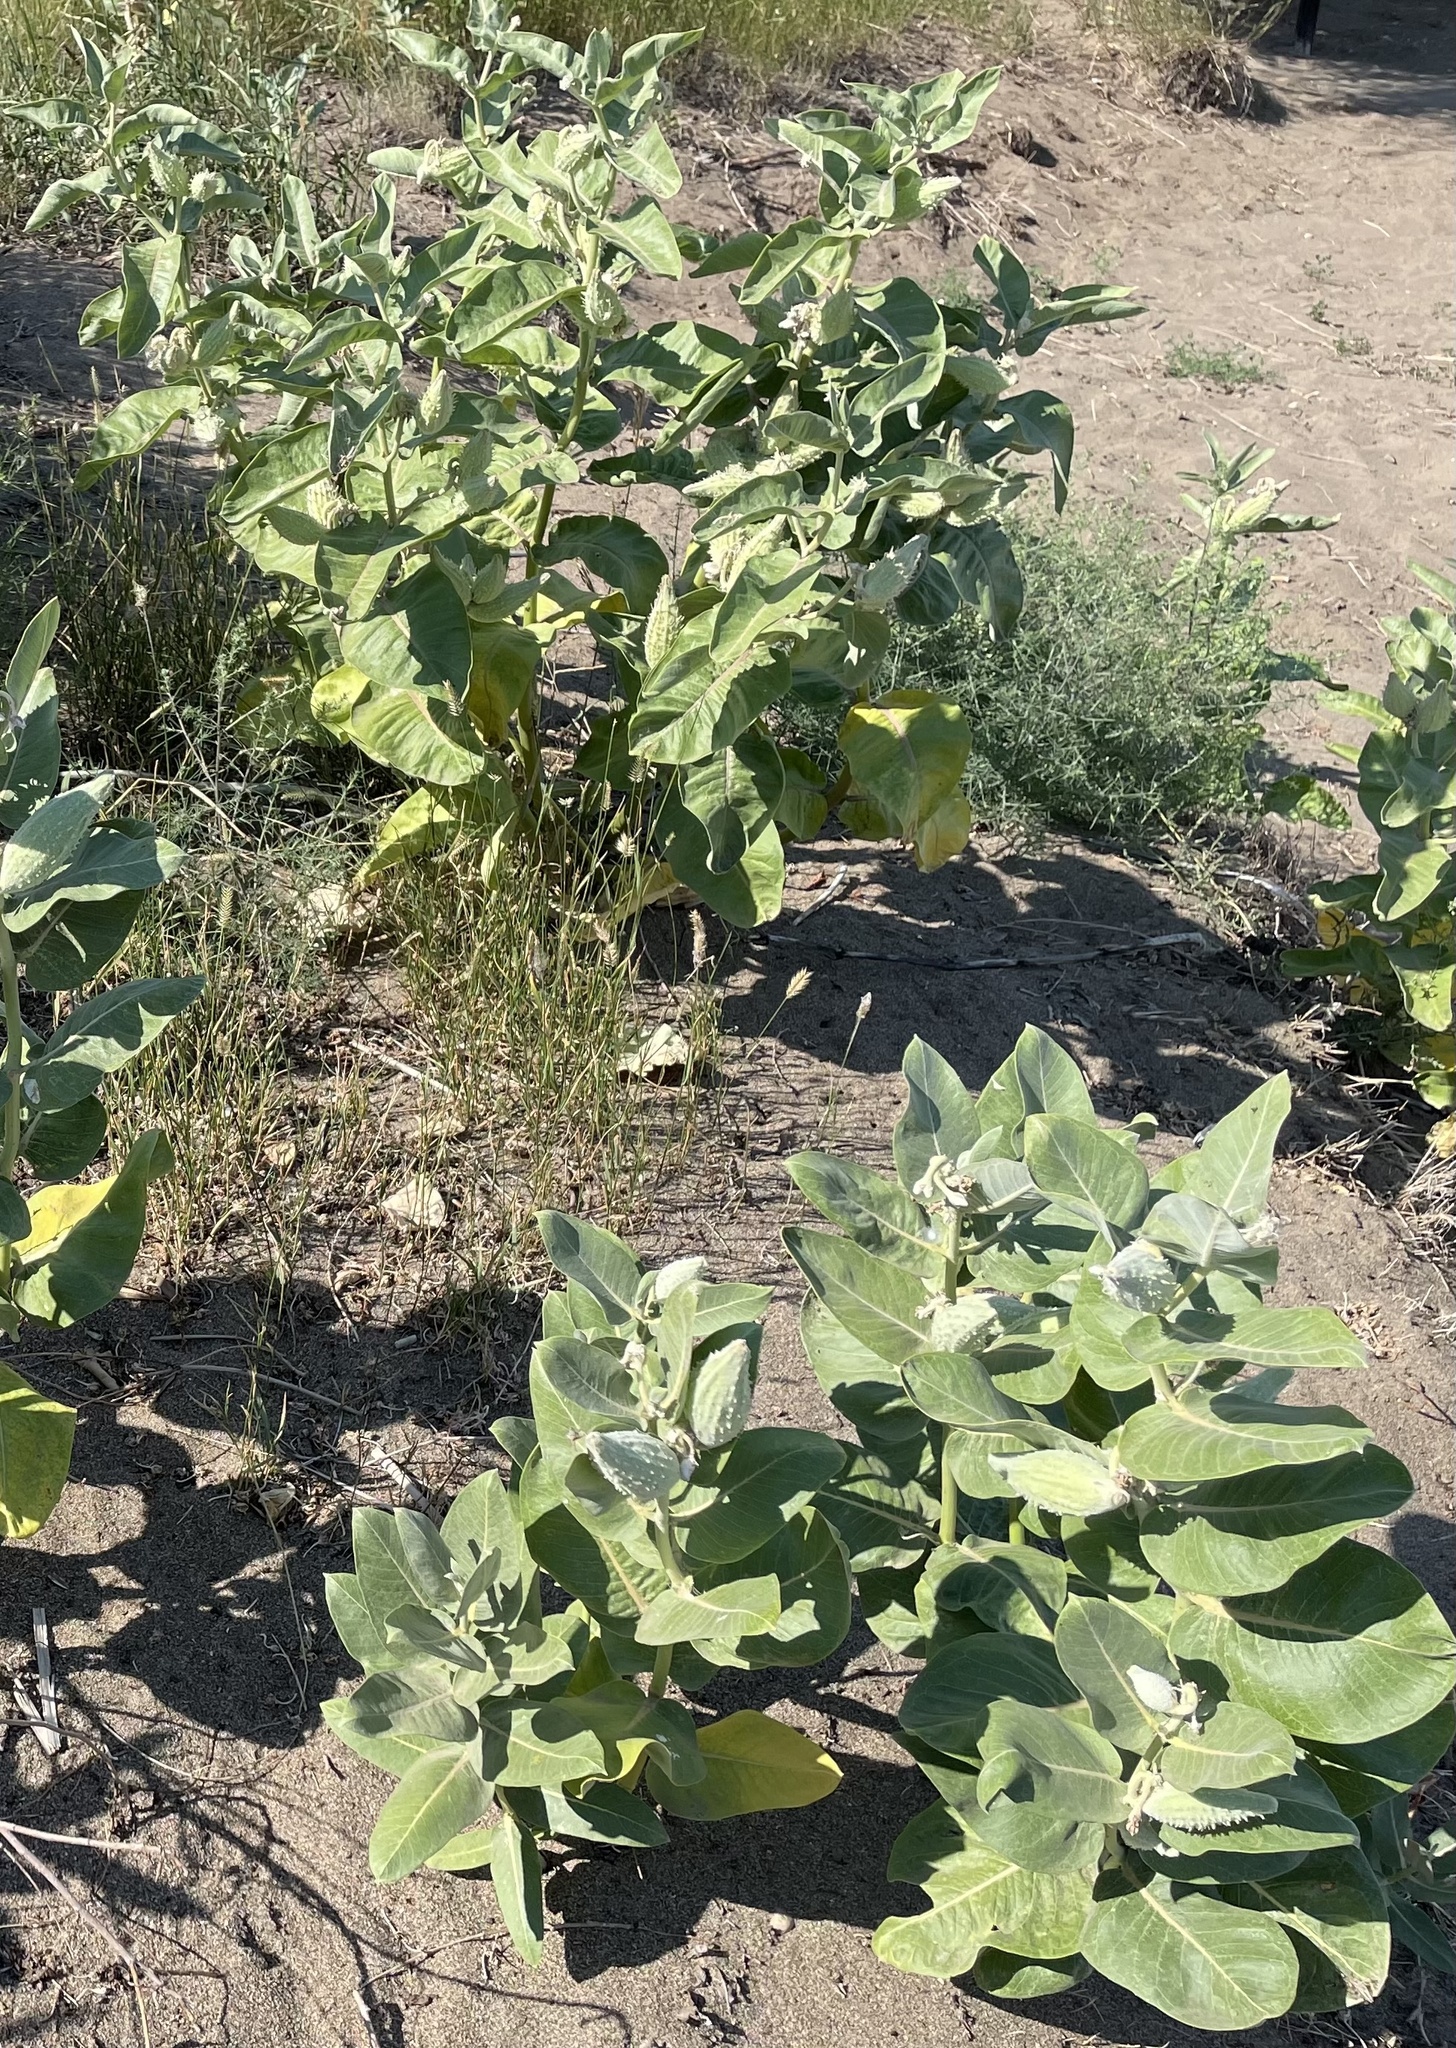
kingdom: Plantae
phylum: Tracheophyta
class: Magnoliopsida
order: Gentianales
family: Apocynaceae
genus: Asclepias
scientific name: Asclepias speciosa
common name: Showy milkweed
